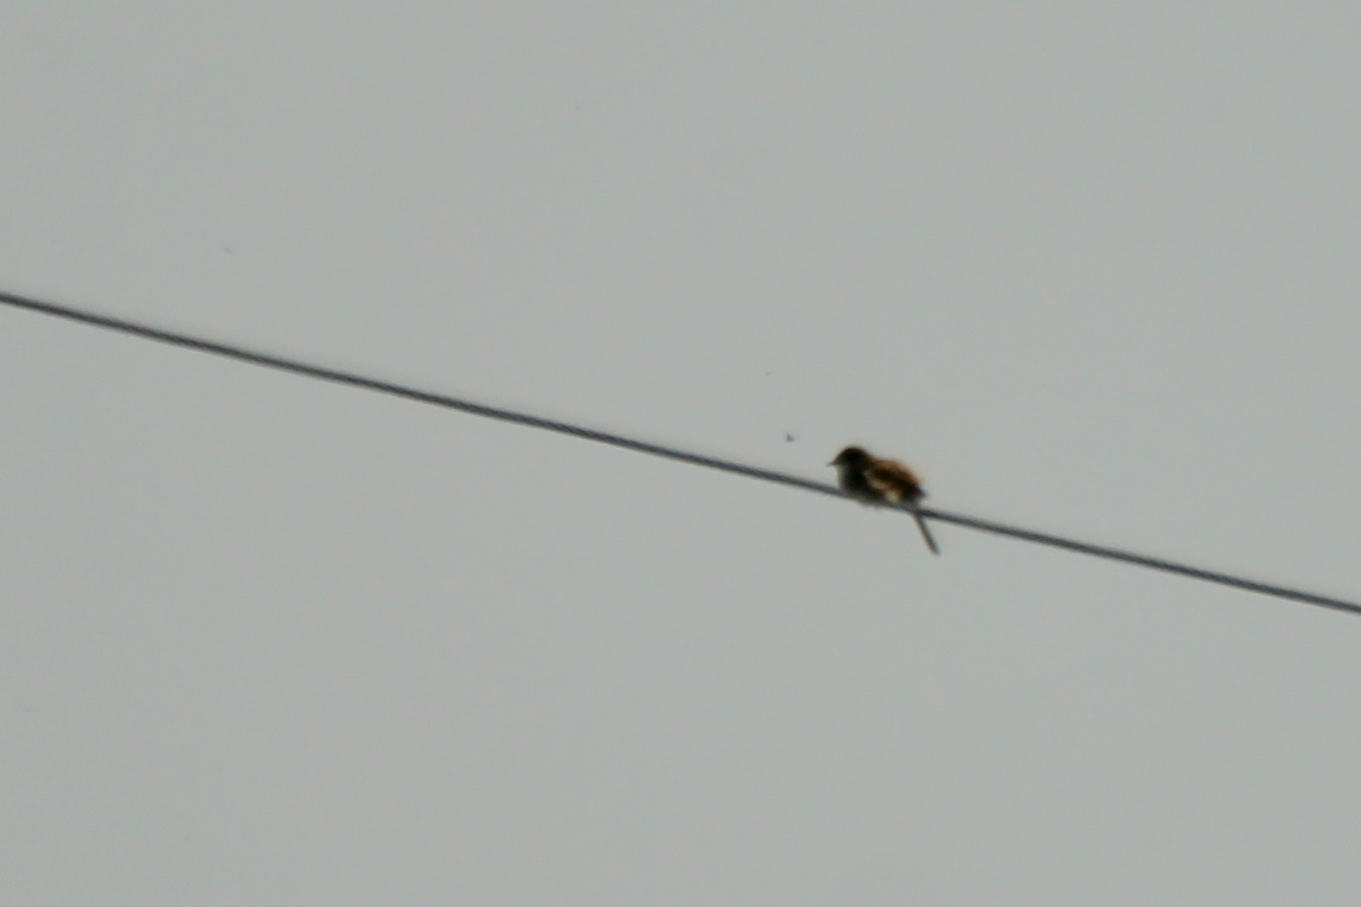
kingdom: Animalia
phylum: Chordata
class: Aves
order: Passeriformes
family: Cettiidae
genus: Horornis
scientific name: Horornis diphone
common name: Japanese bush warbler
